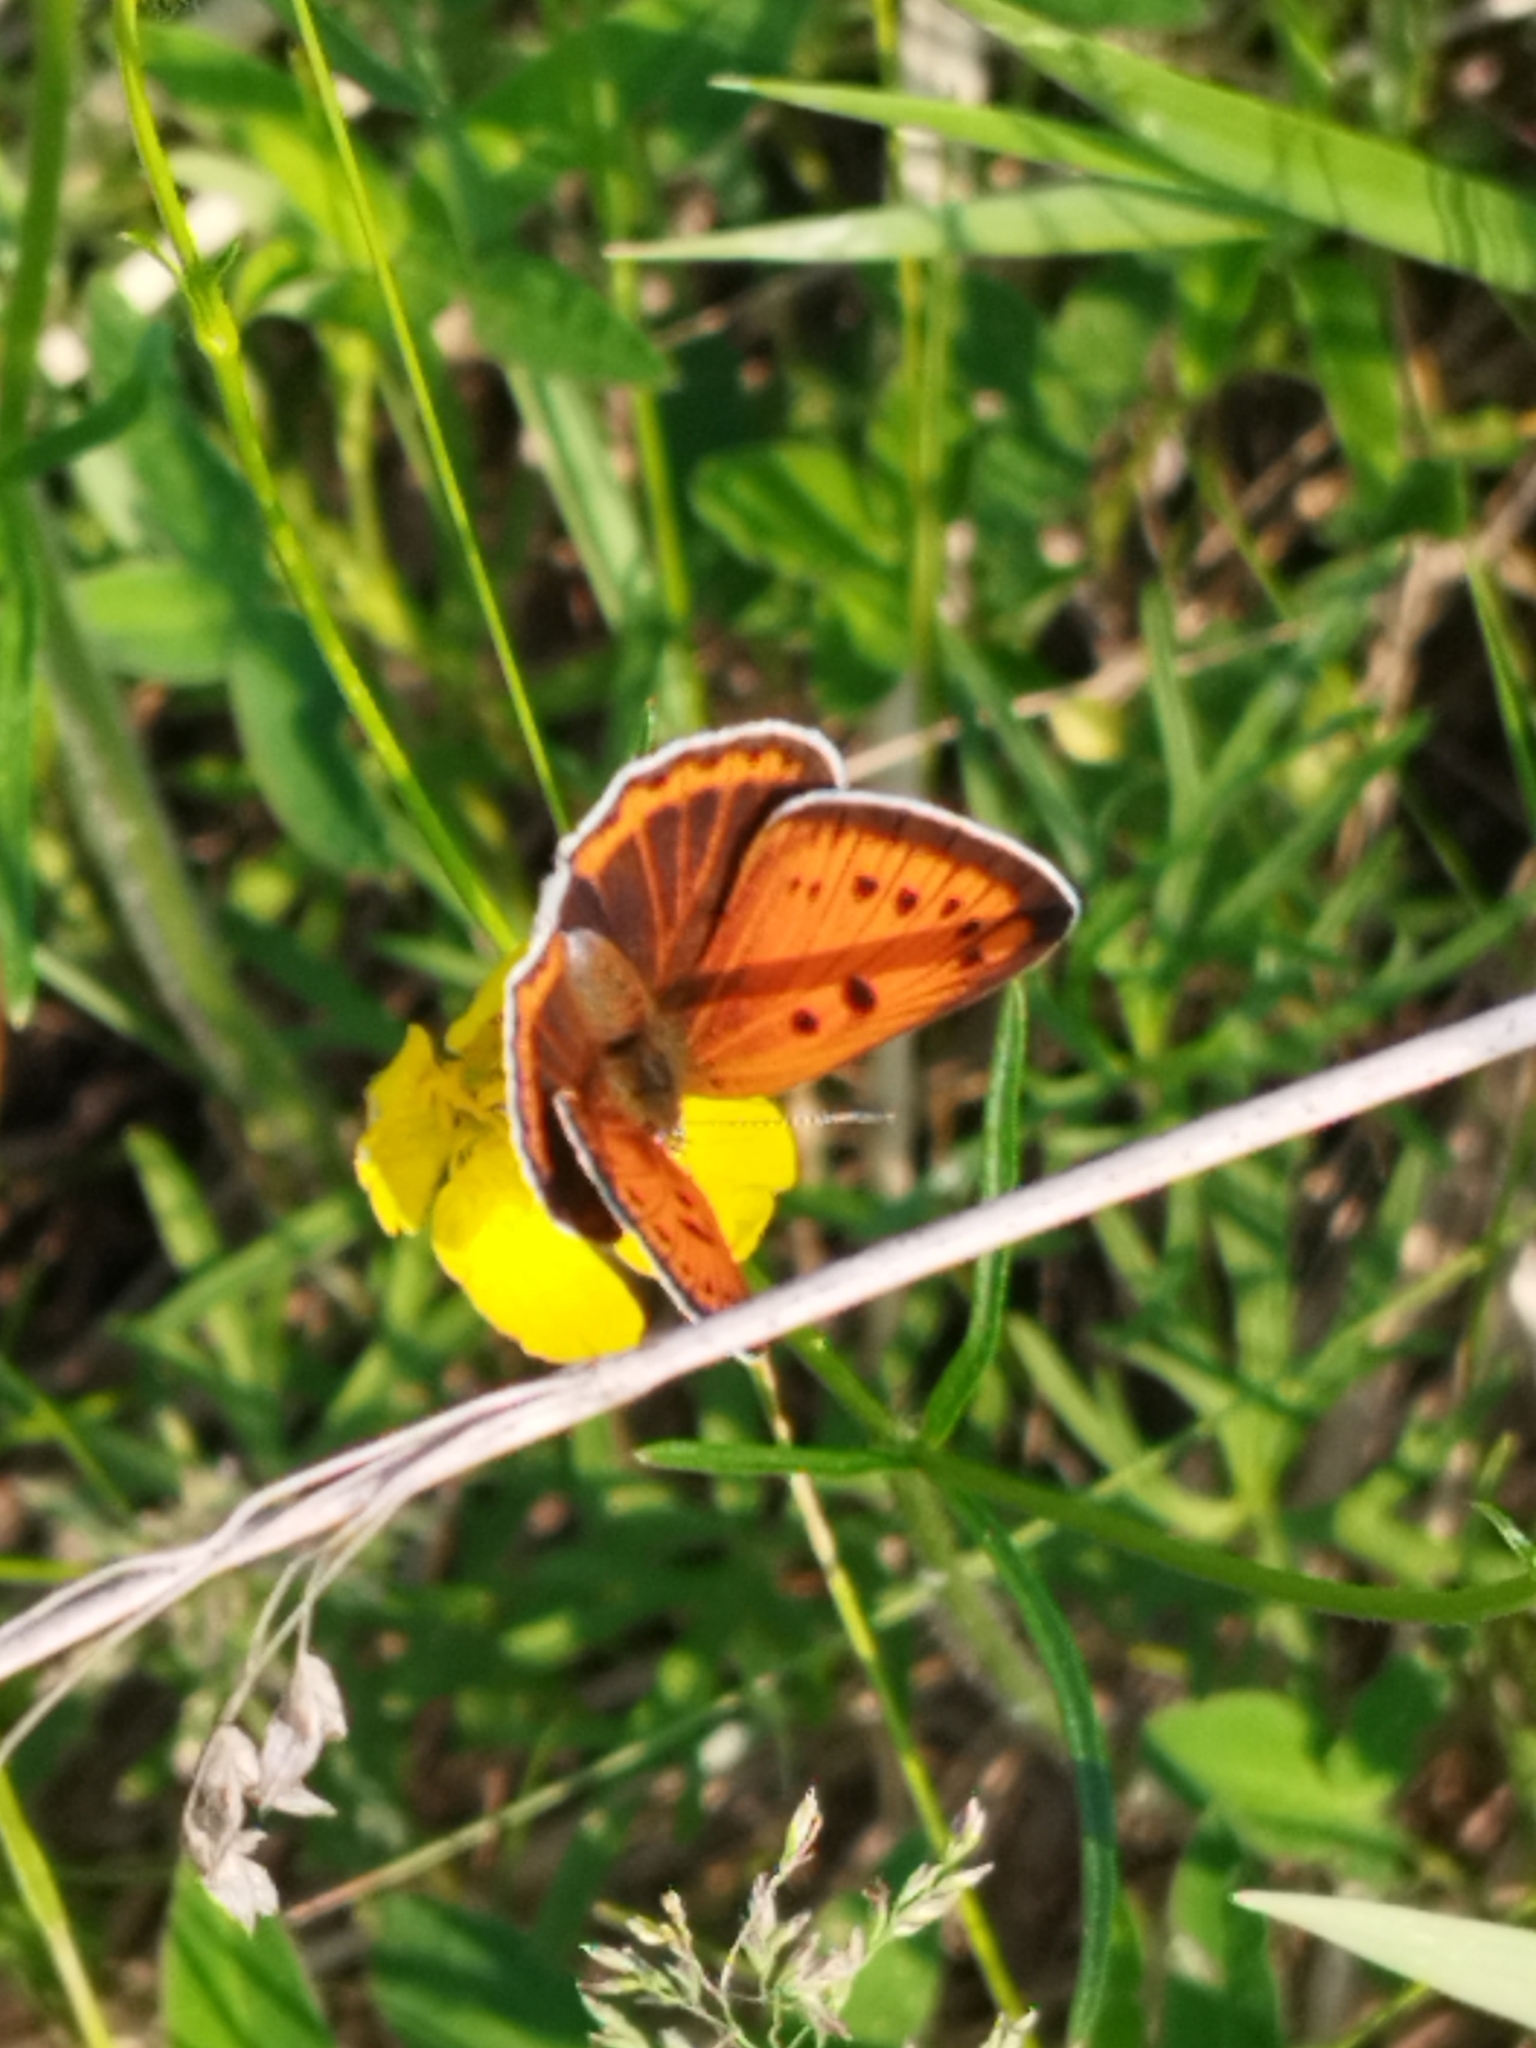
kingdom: Animalia
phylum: Arthropoda
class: Insecta
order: Lepidoptera
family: Lycaenidae
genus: Lycaena
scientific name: Lycaena dispar
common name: Large copper
